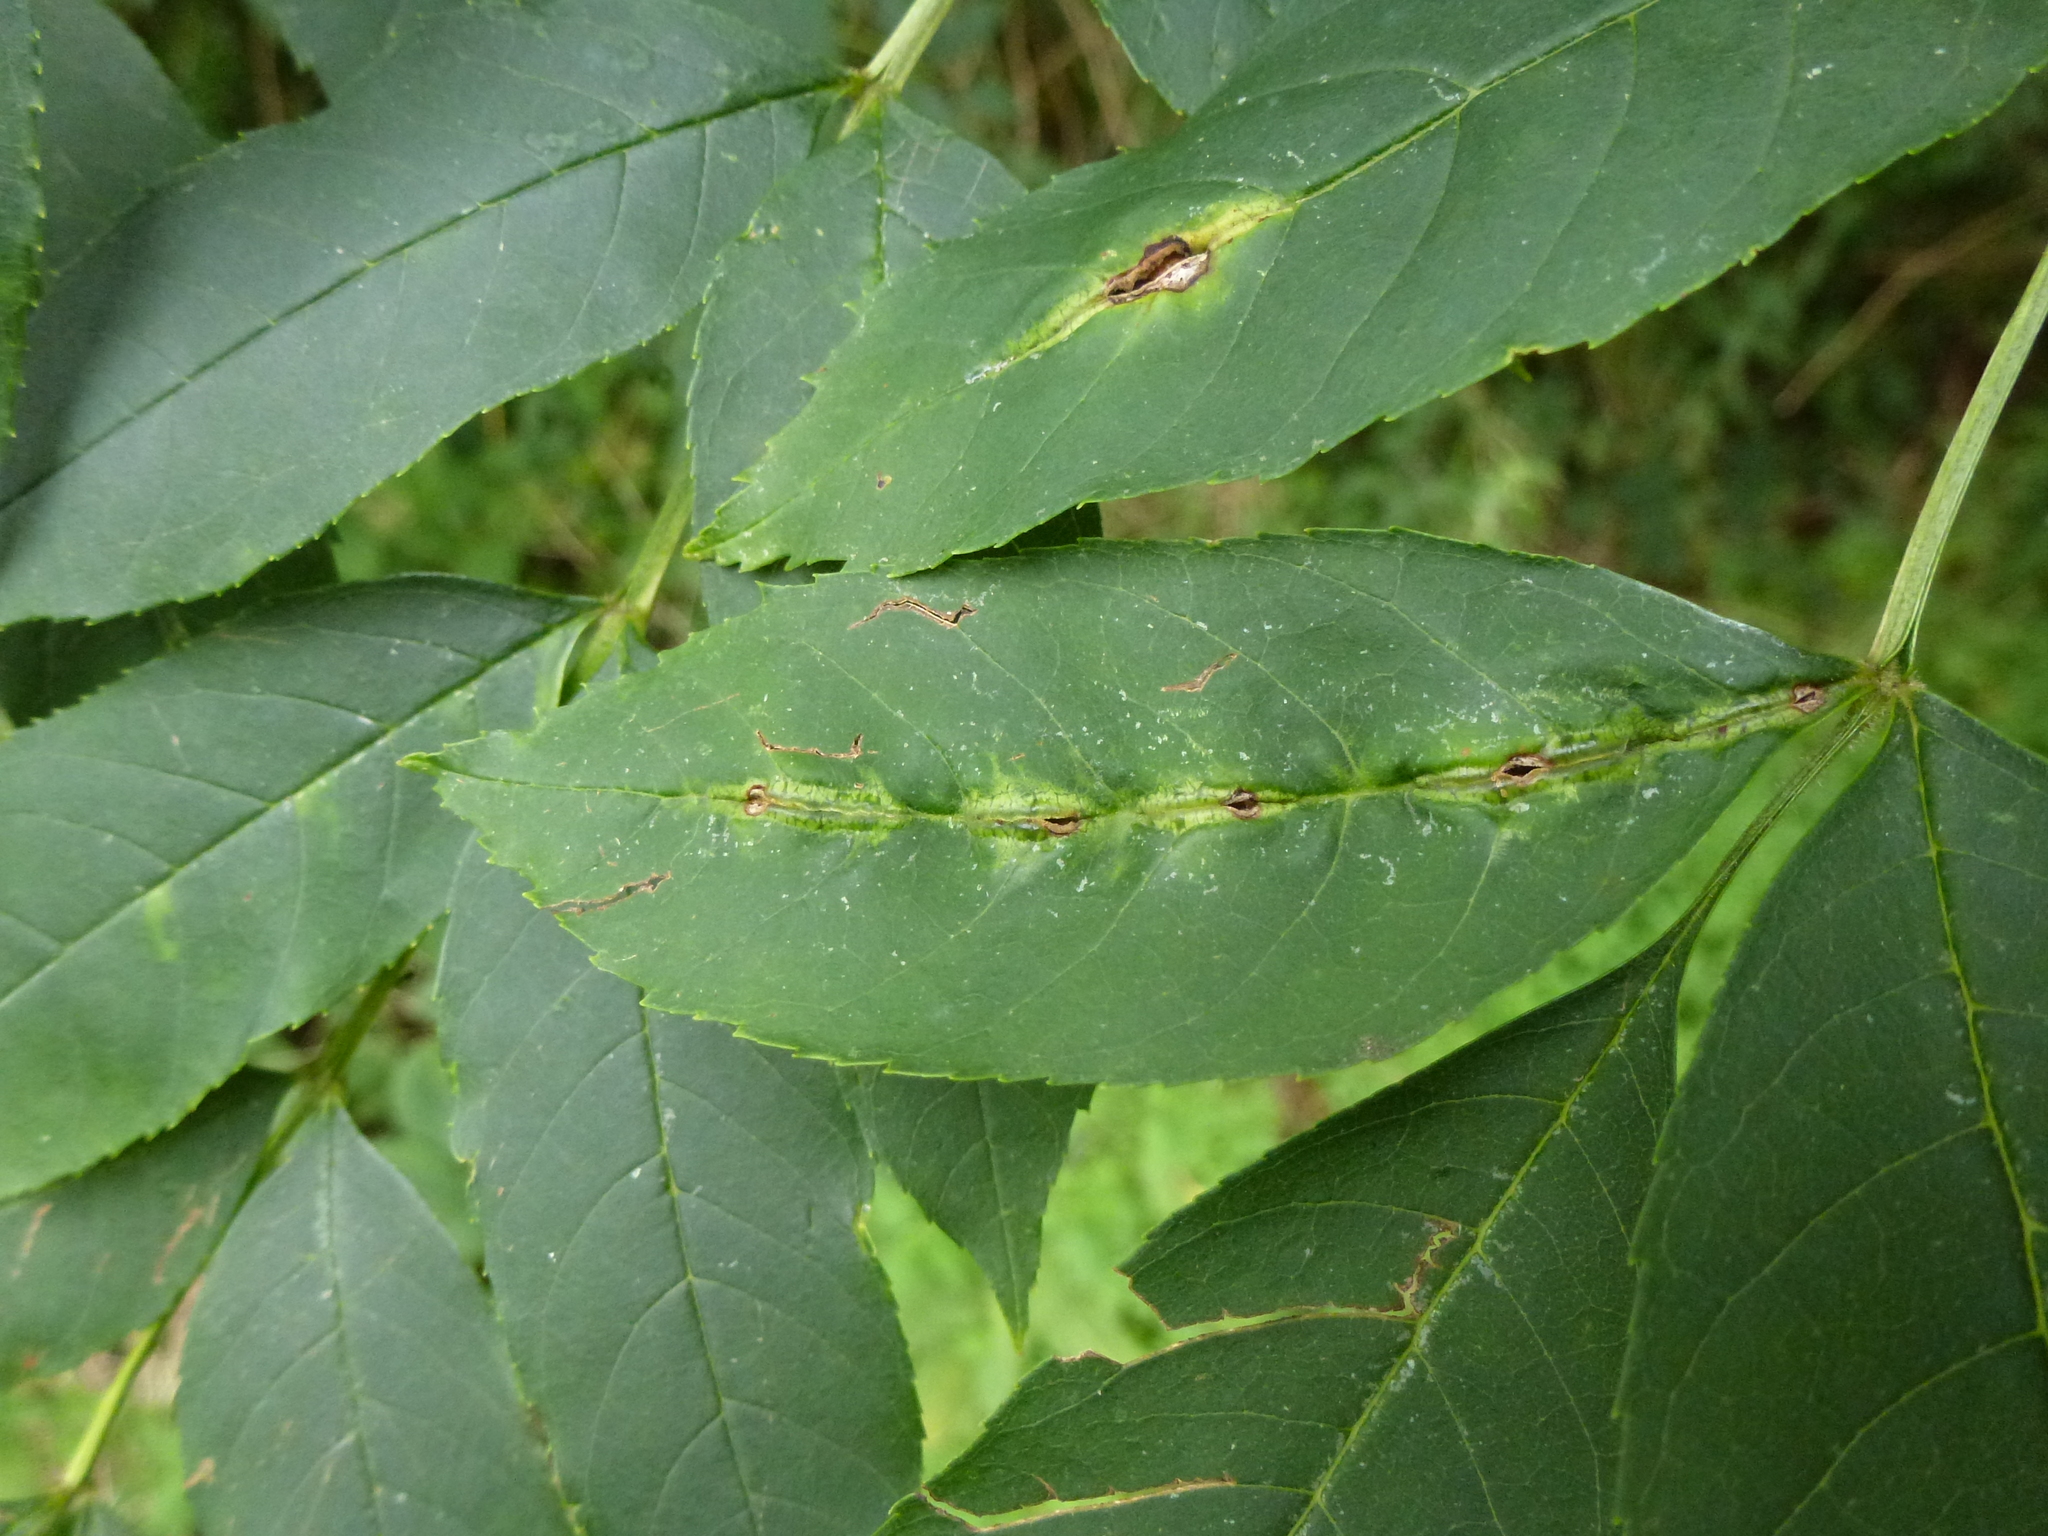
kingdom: Animalia
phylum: Arthropoda
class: Insecta
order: Diptera
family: Cecidomyiidae
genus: Dasineura
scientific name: Dasineura fraxini
